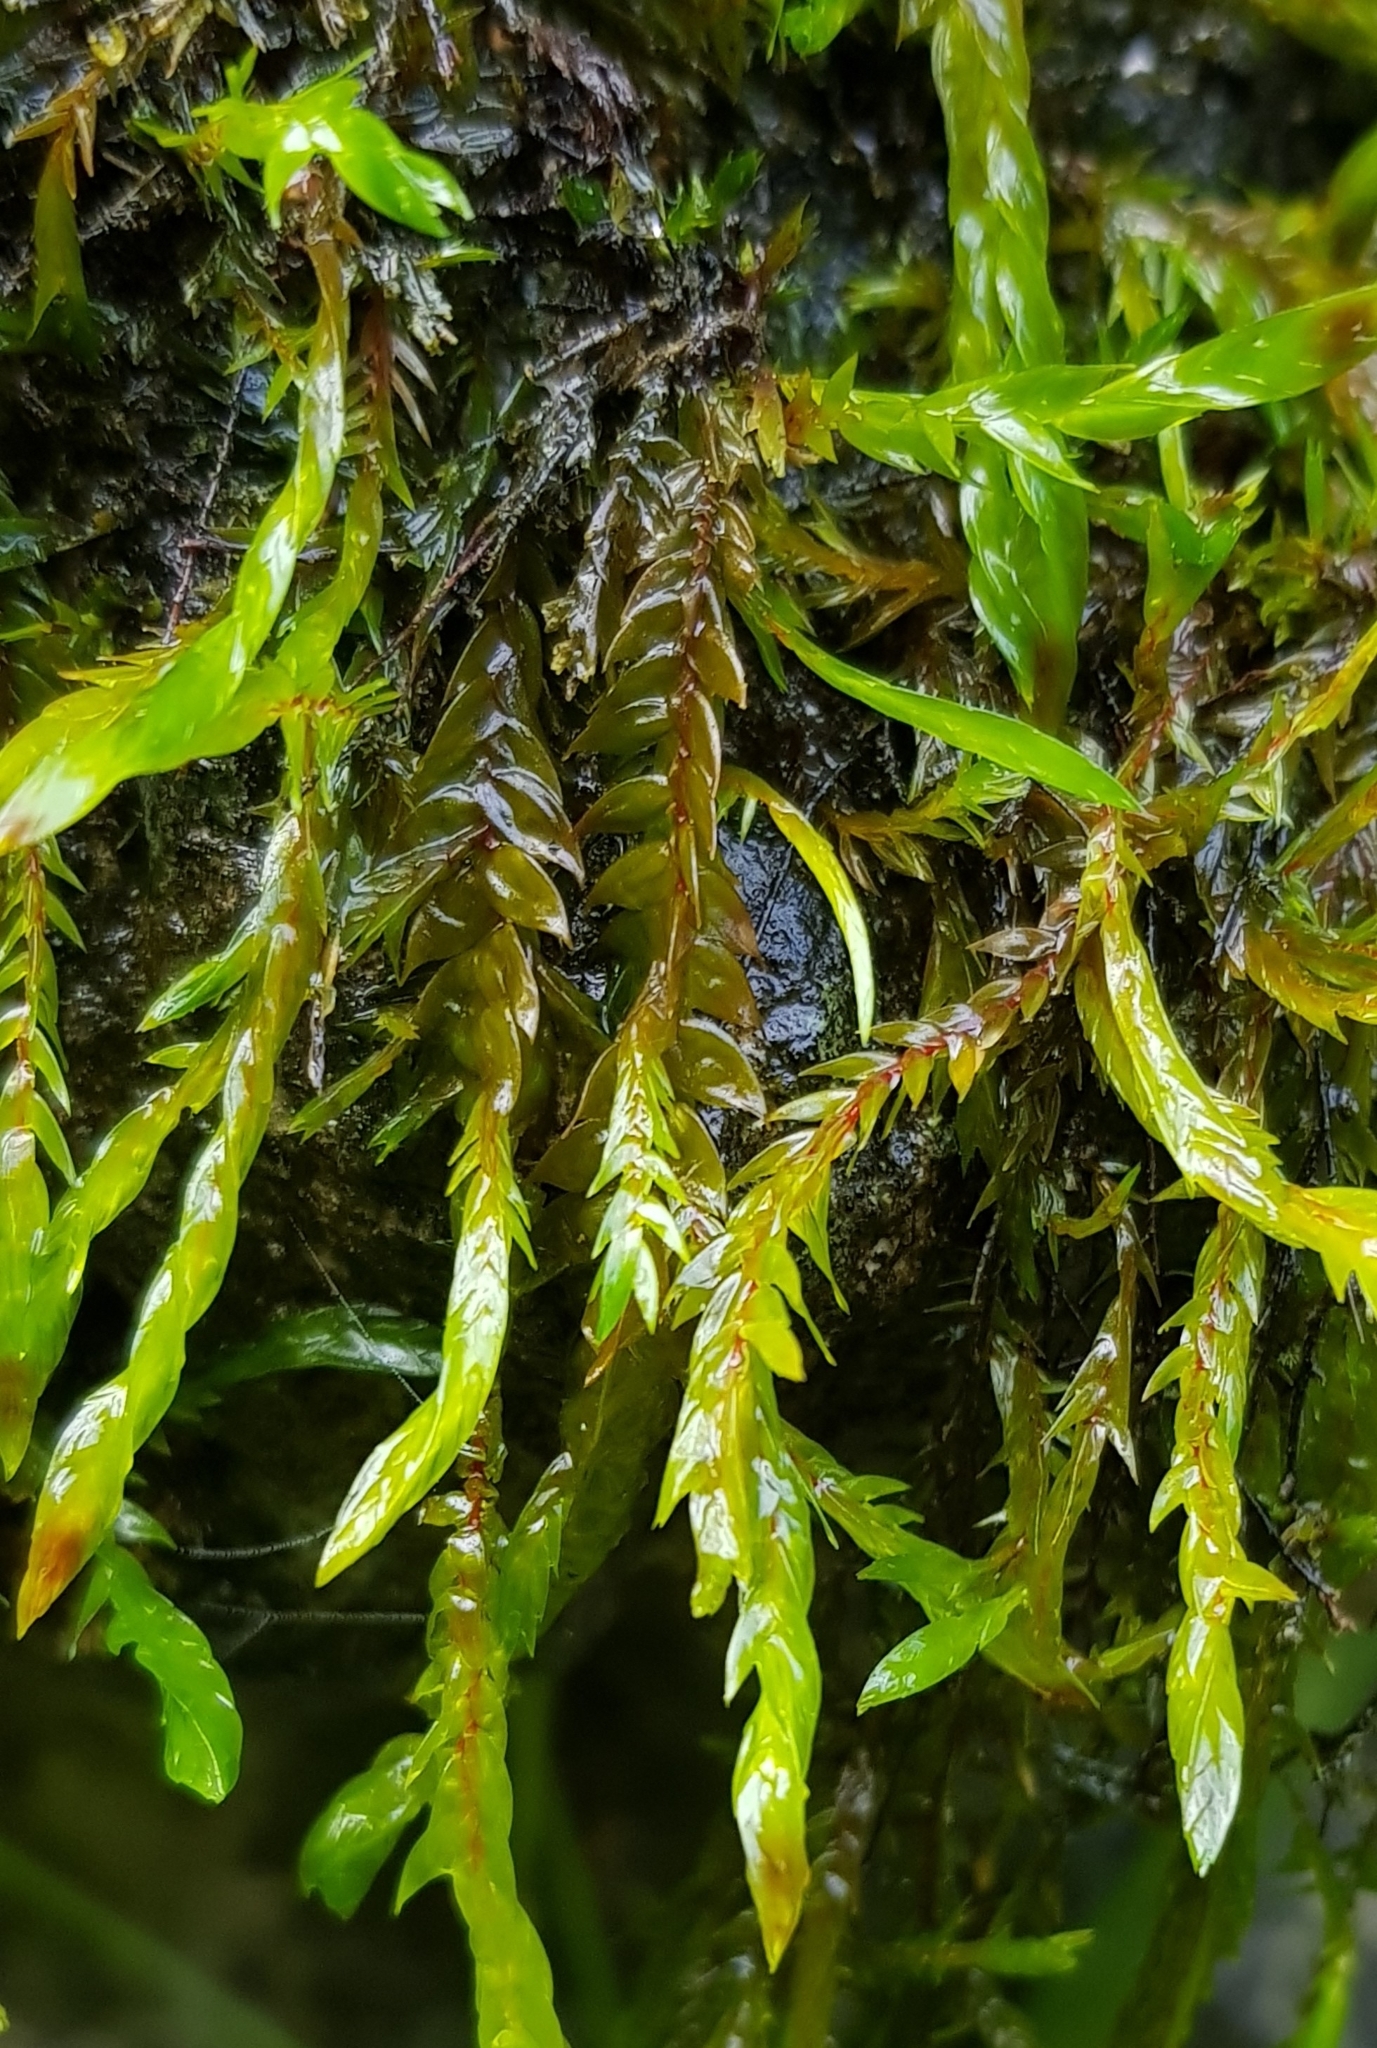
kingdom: Plantae
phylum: Bryophyta
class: Bryopsida
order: Hypnales
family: Fontinalaceae
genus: Fontinalis
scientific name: Fontinalis antipyretica
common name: Greater water-moss
